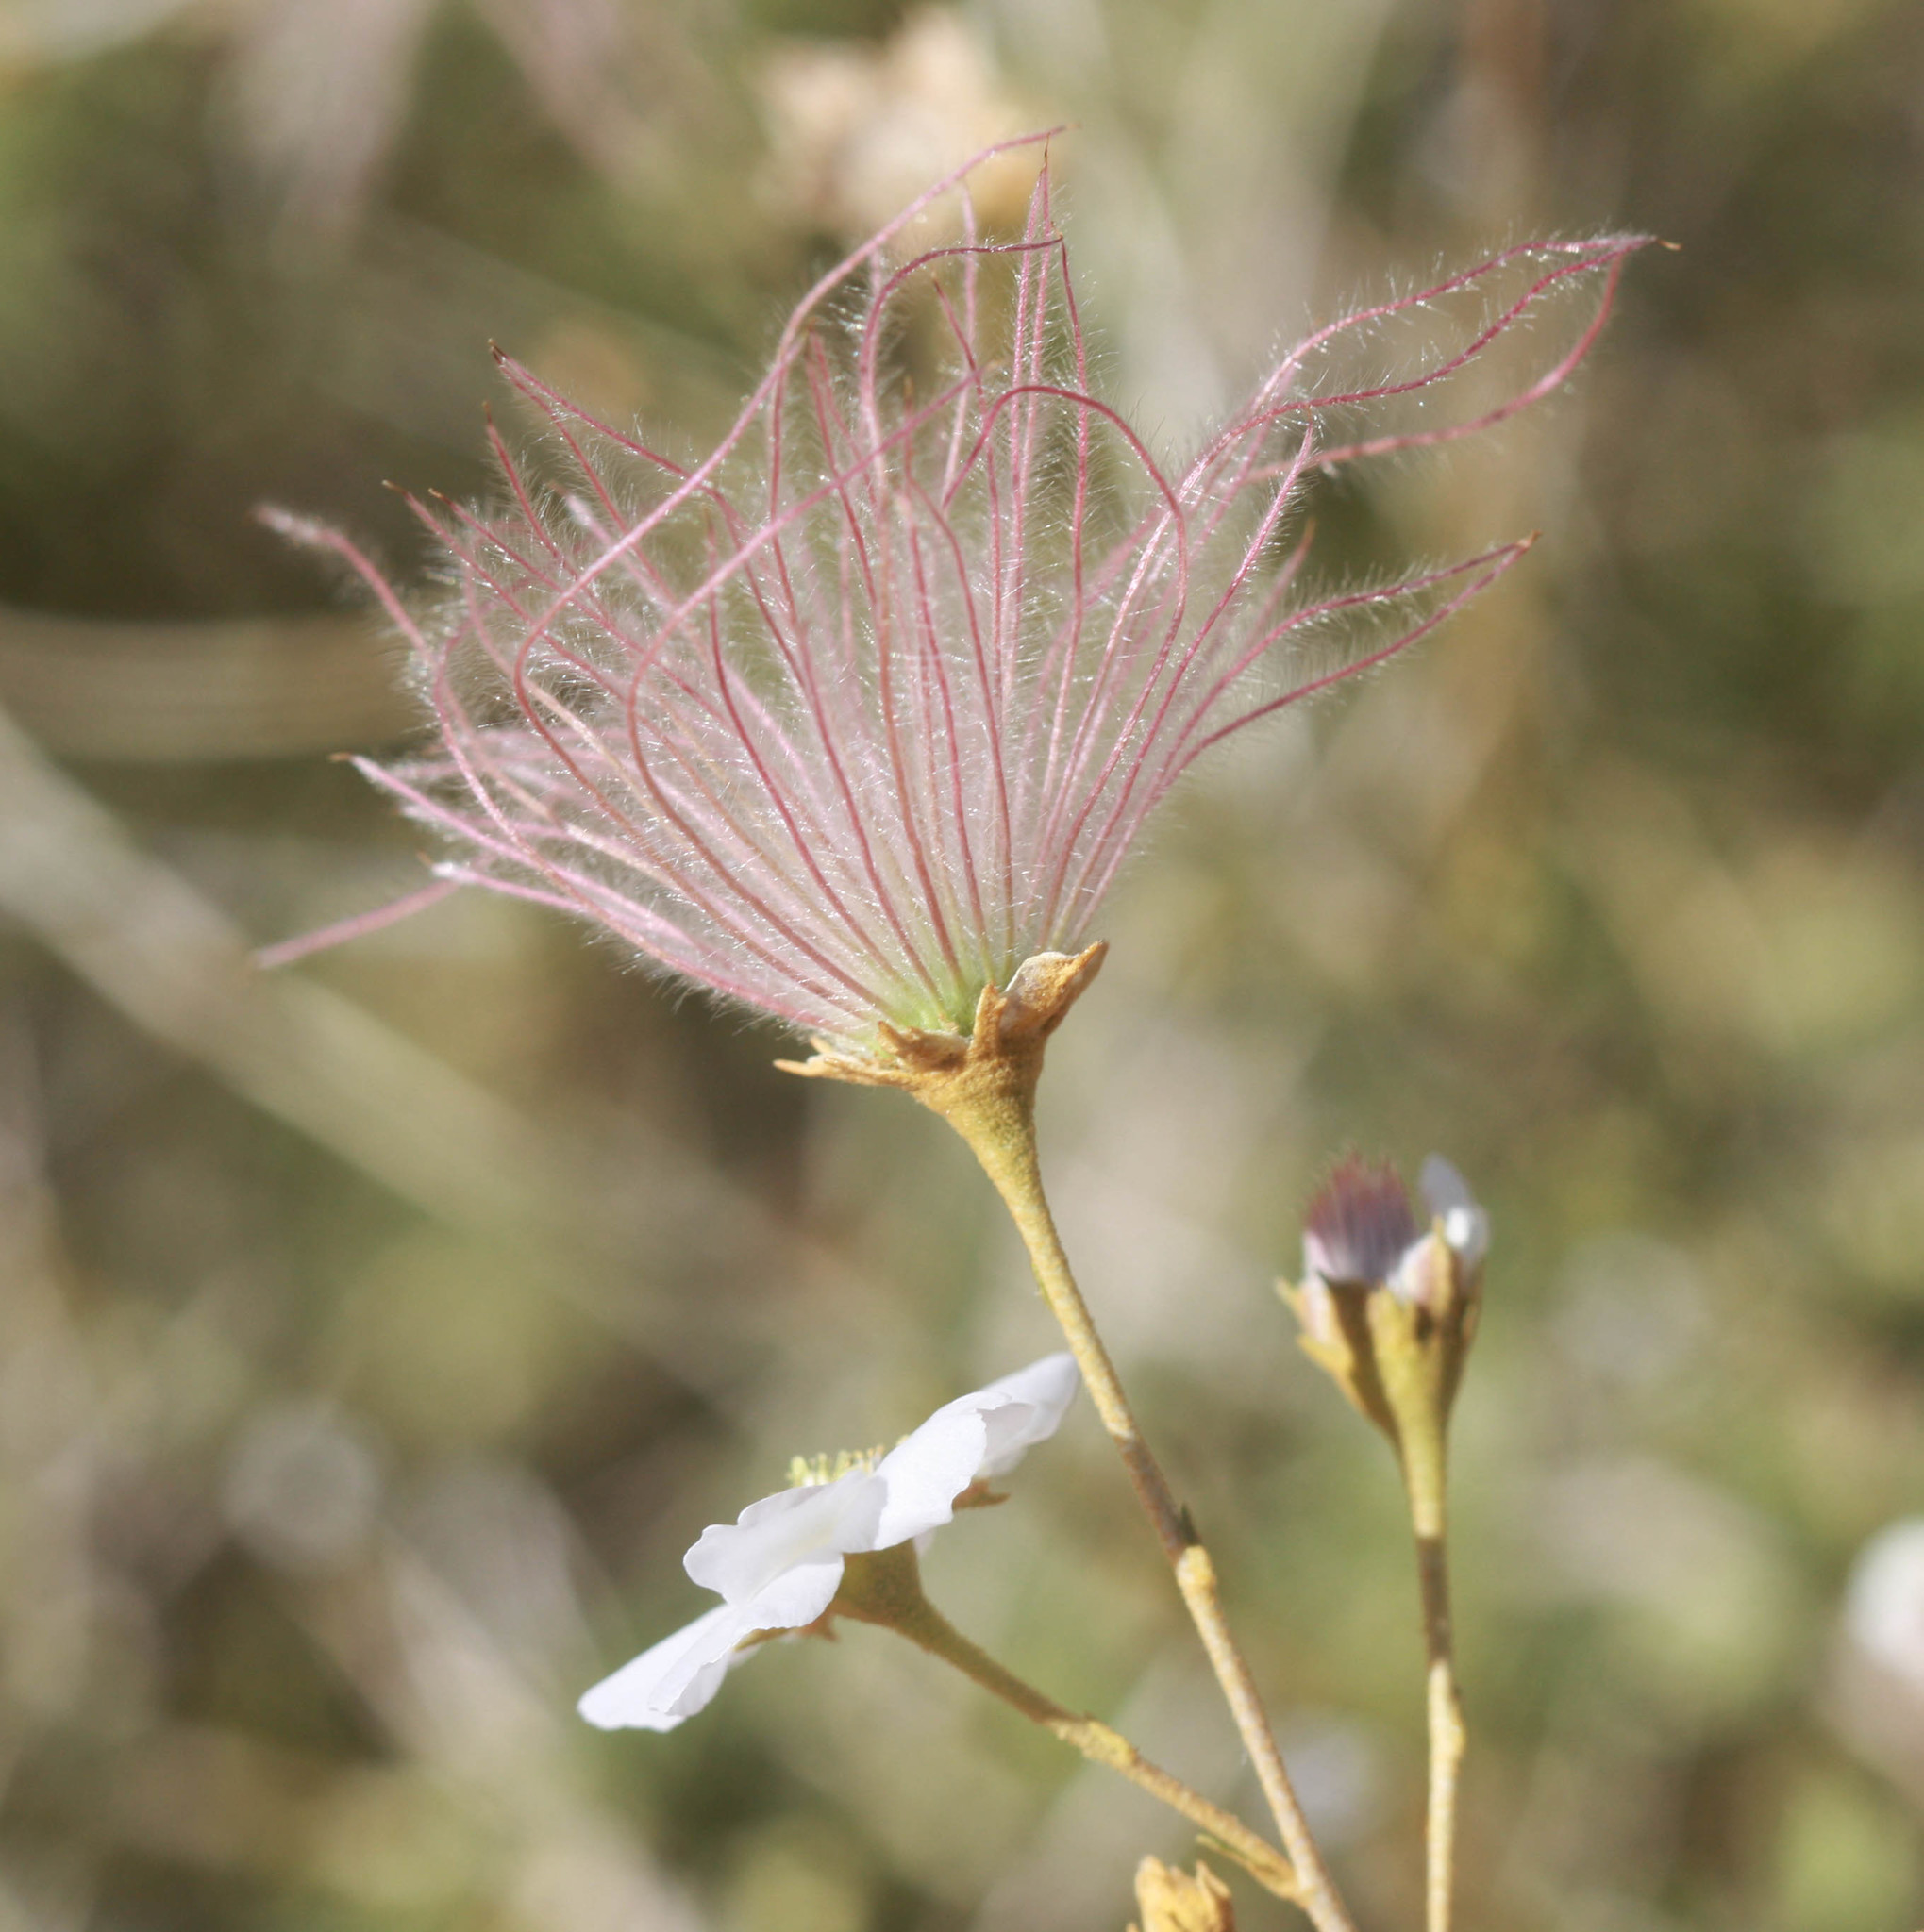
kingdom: Plantae
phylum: Tracheophyta
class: Magnoliopsida
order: Rosales
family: Rosaceae
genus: Fallugia
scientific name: Fallugia paradoxa
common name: Apache-plume
